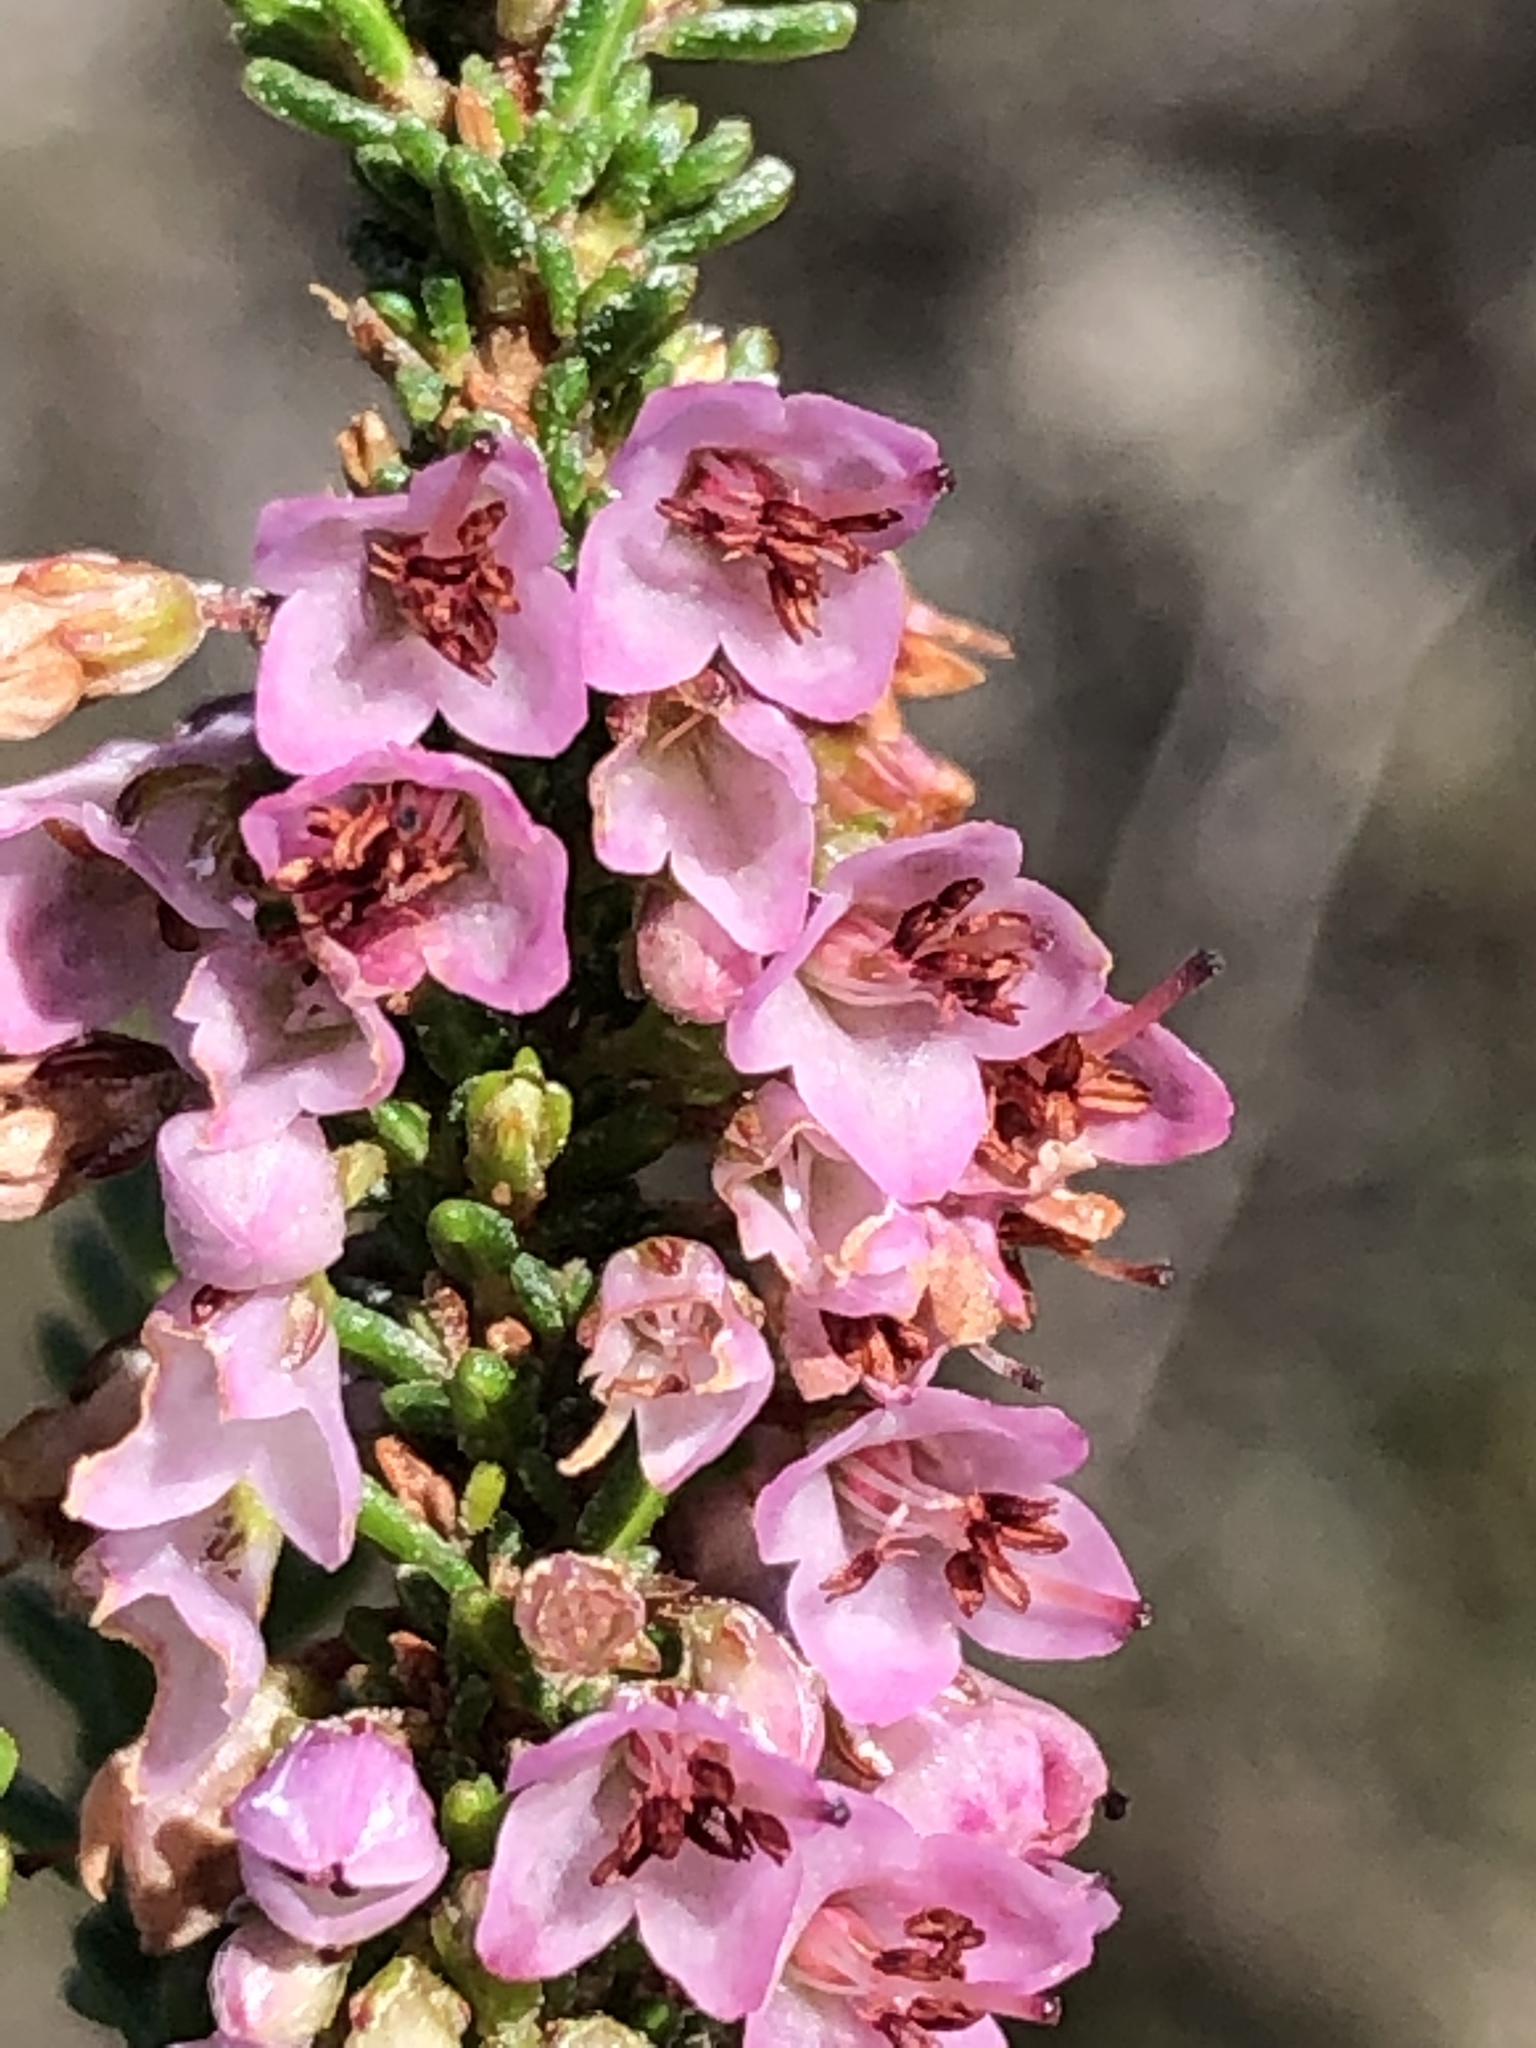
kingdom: Plantae
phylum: Tracheophyta
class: Magnoliopsida
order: Ericales
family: Ericaceae
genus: Erica
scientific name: Erica deflexa
